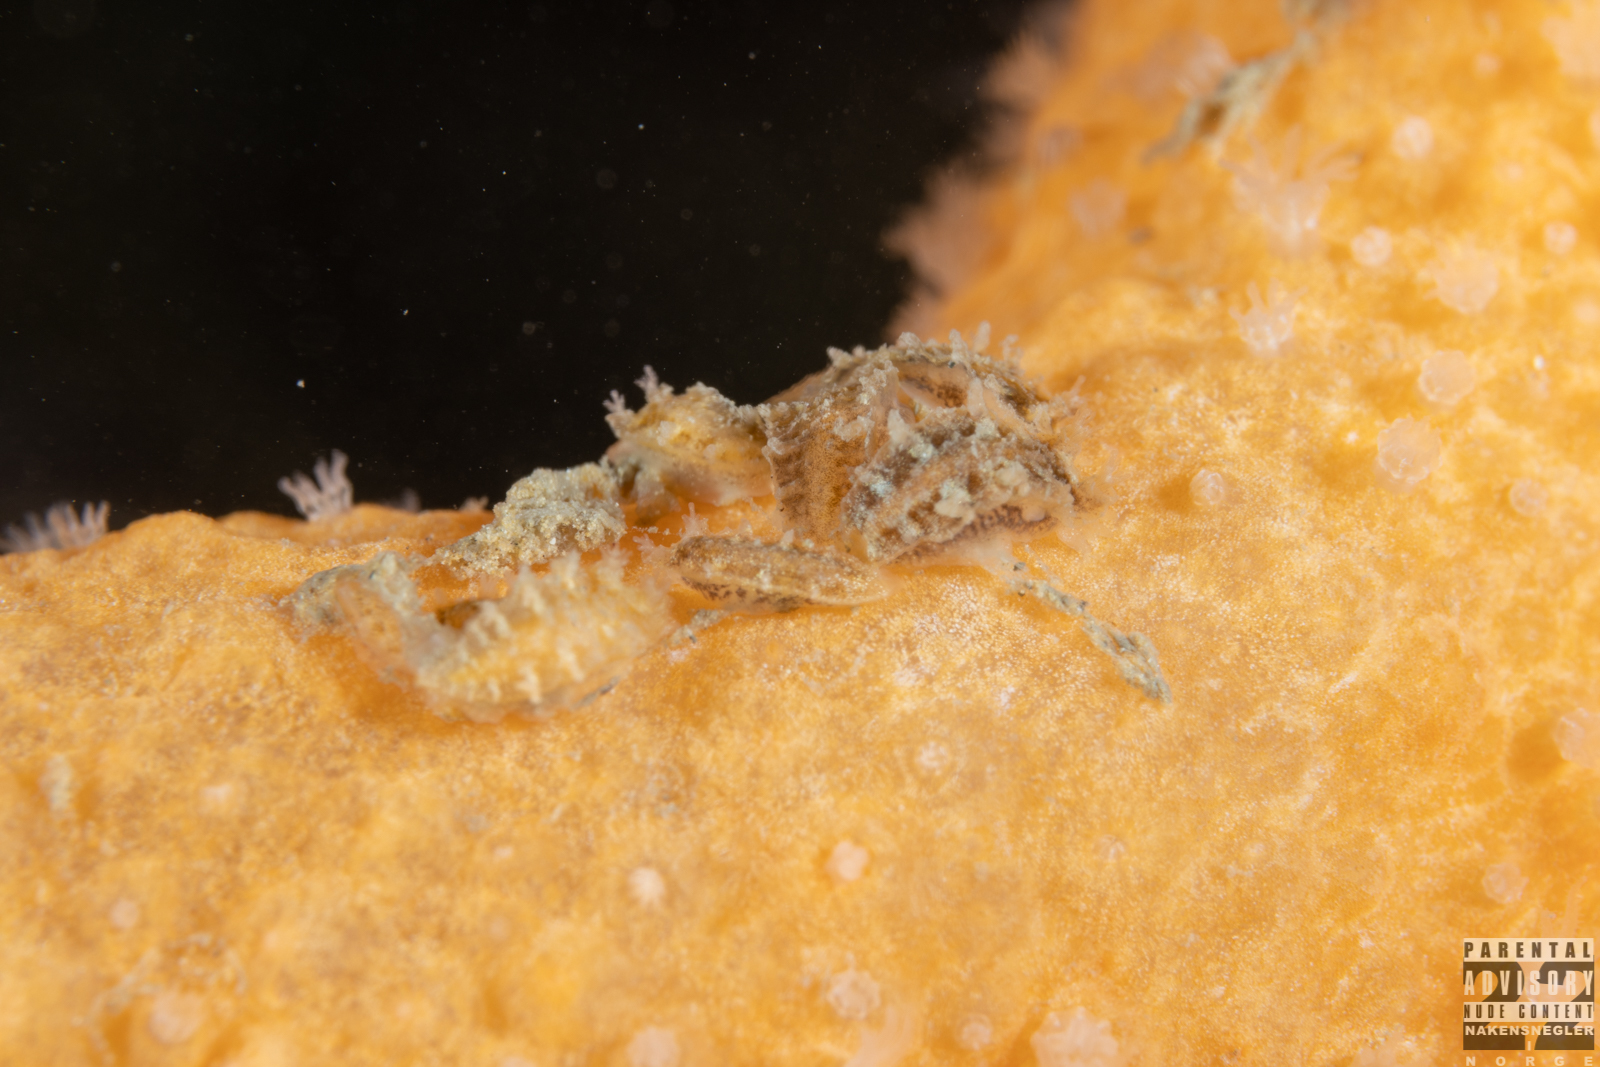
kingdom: Animalia
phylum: Mollusca
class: Gastropoda
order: Nudibranchia
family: Tritoniidae
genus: Duvaucelia
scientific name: Duvaucelia plebeia
